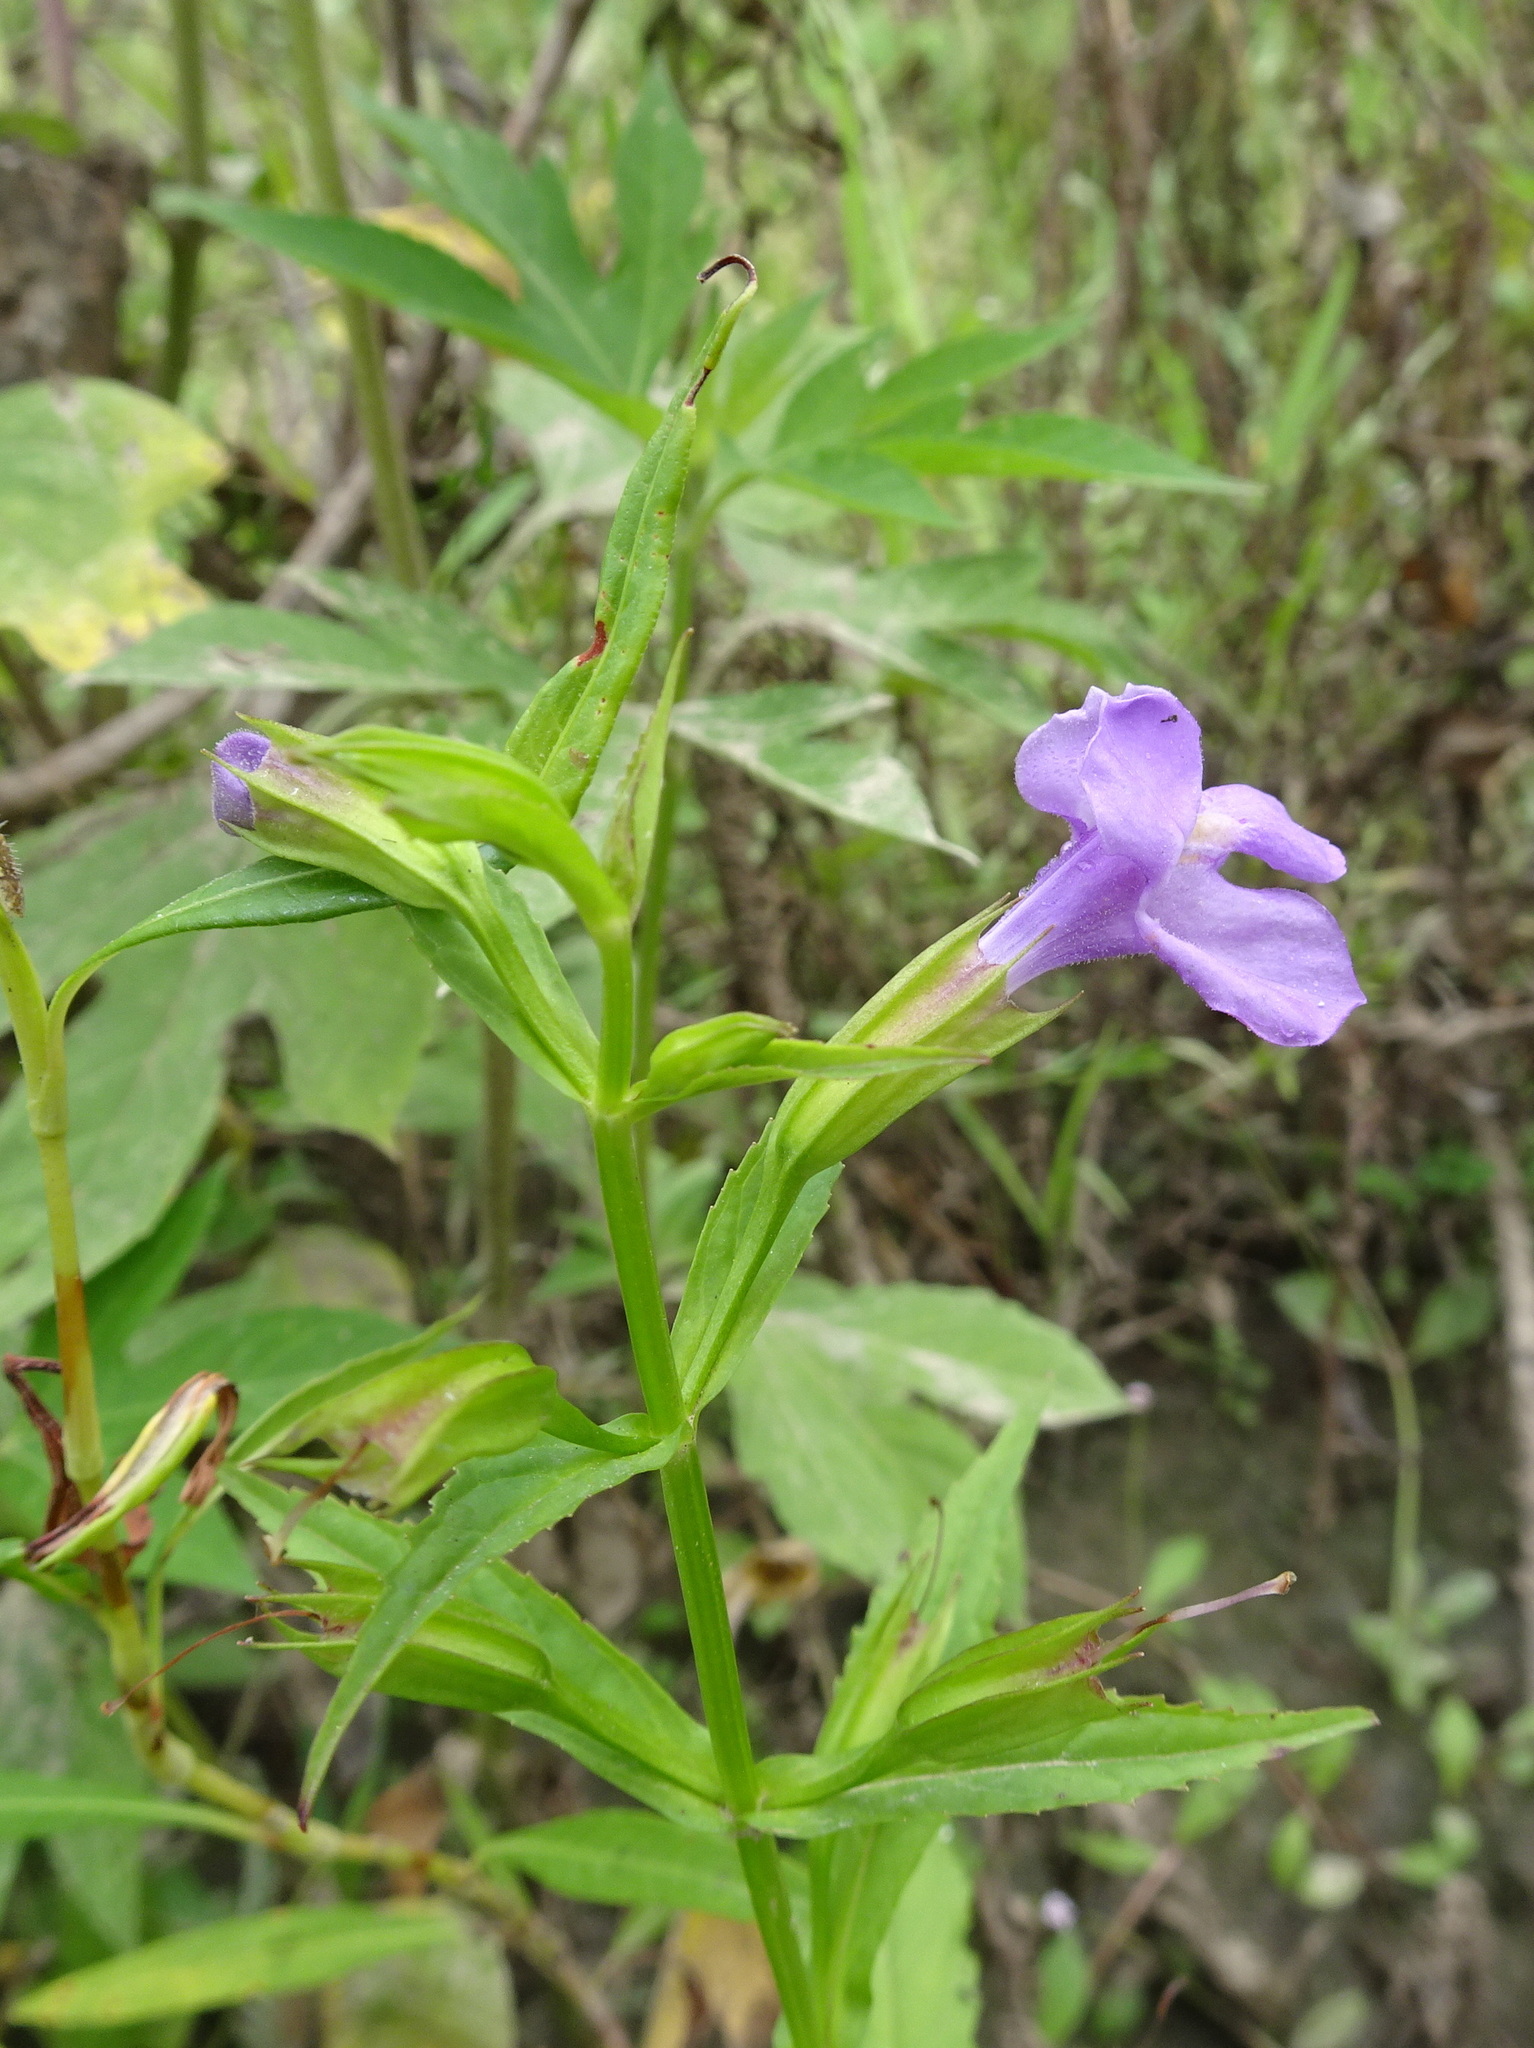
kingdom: Plantae
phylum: Tracheophyta
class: Magnoliopsida
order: Lamiales
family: Phrymaceae
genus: Mimulus
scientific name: Mimulus ringens
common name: Allegheny monkeyflower
